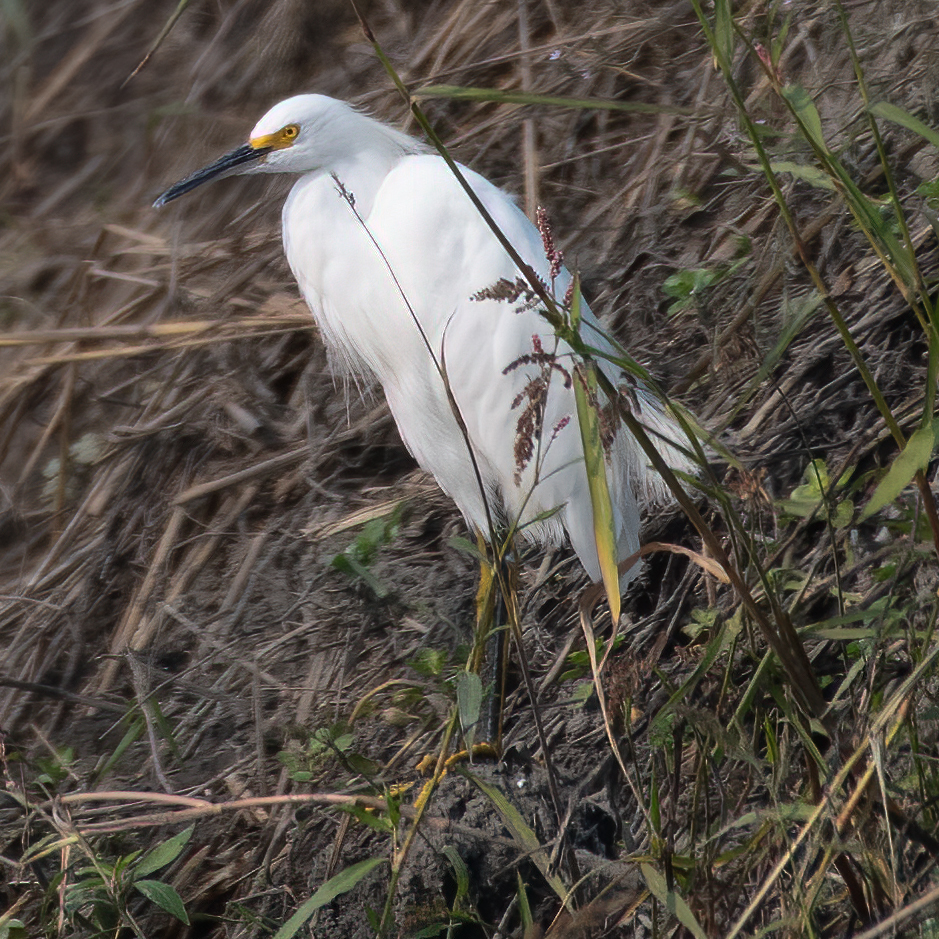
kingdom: Animalia
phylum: Chordata
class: Aves
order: Pelecaniformes
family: Ardeidae
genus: Egretta
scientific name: Egretta thula
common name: Snowy egret
